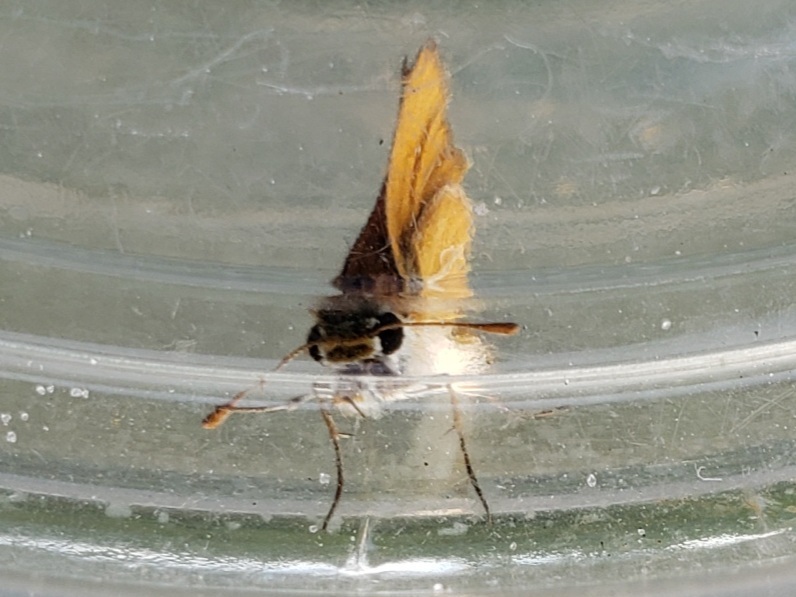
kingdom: Animalia
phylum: Arthropoda
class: Insecta
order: Lepidoptera
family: Hesperiidae
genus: Copaeodes
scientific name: Copaeodes minima
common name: Southern skipperling
